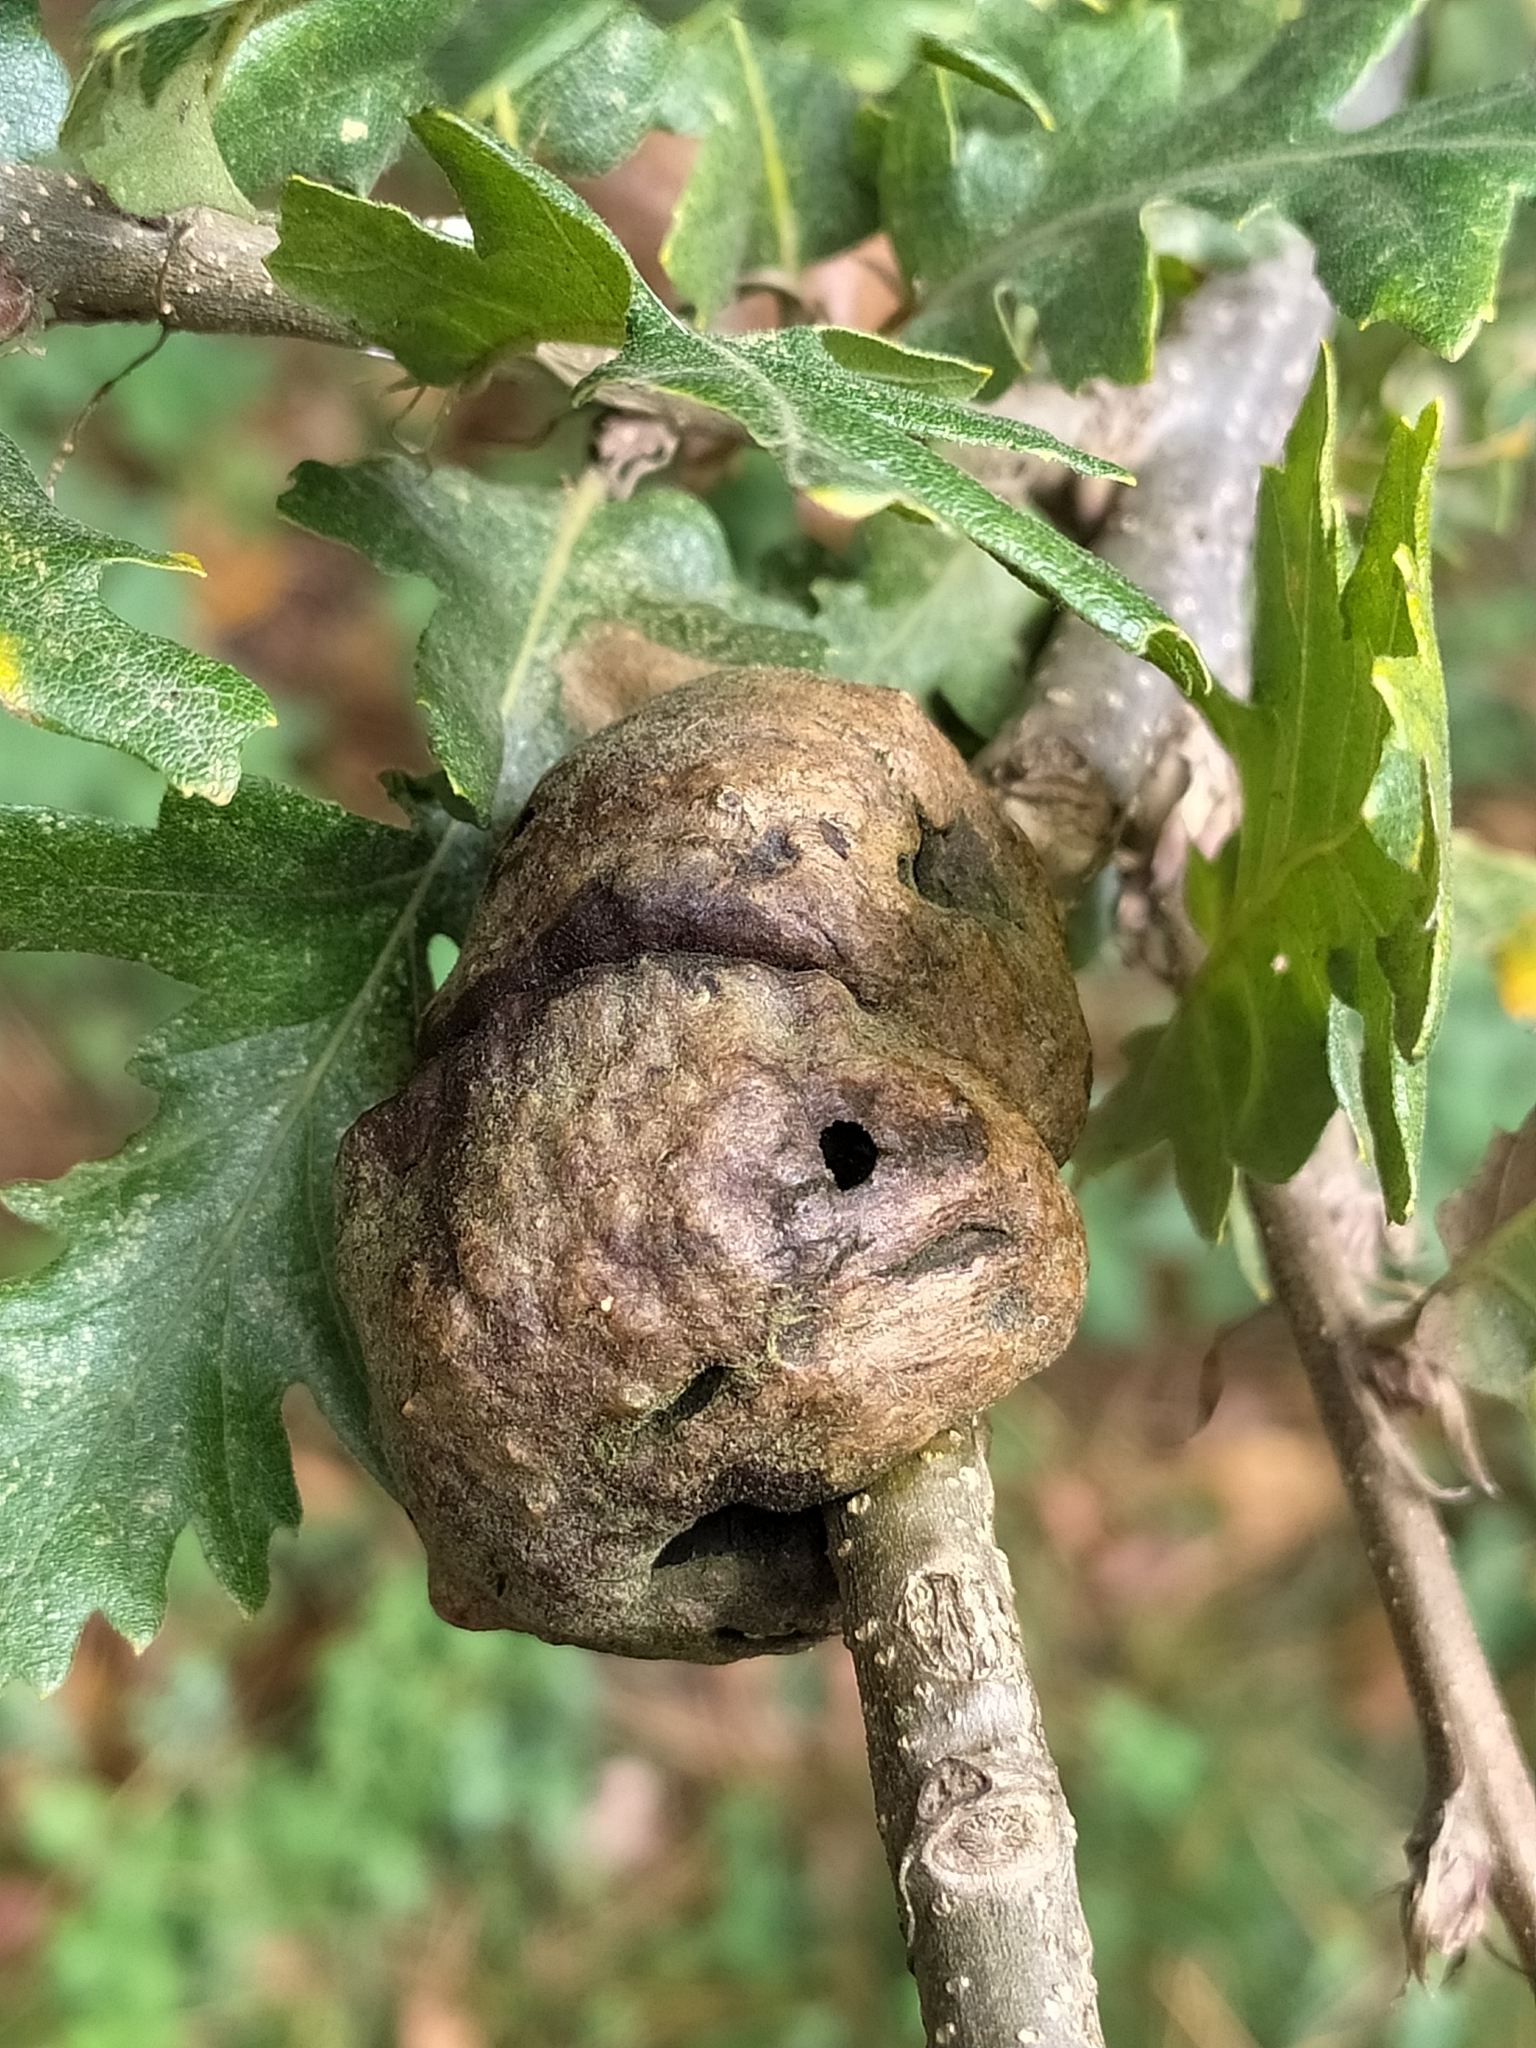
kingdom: Animalia
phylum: Arthropoda
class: Insecta
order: Hymenoptera
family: Cynipidae
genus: Aphelonyx
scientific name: Aphelonyx cerricola
